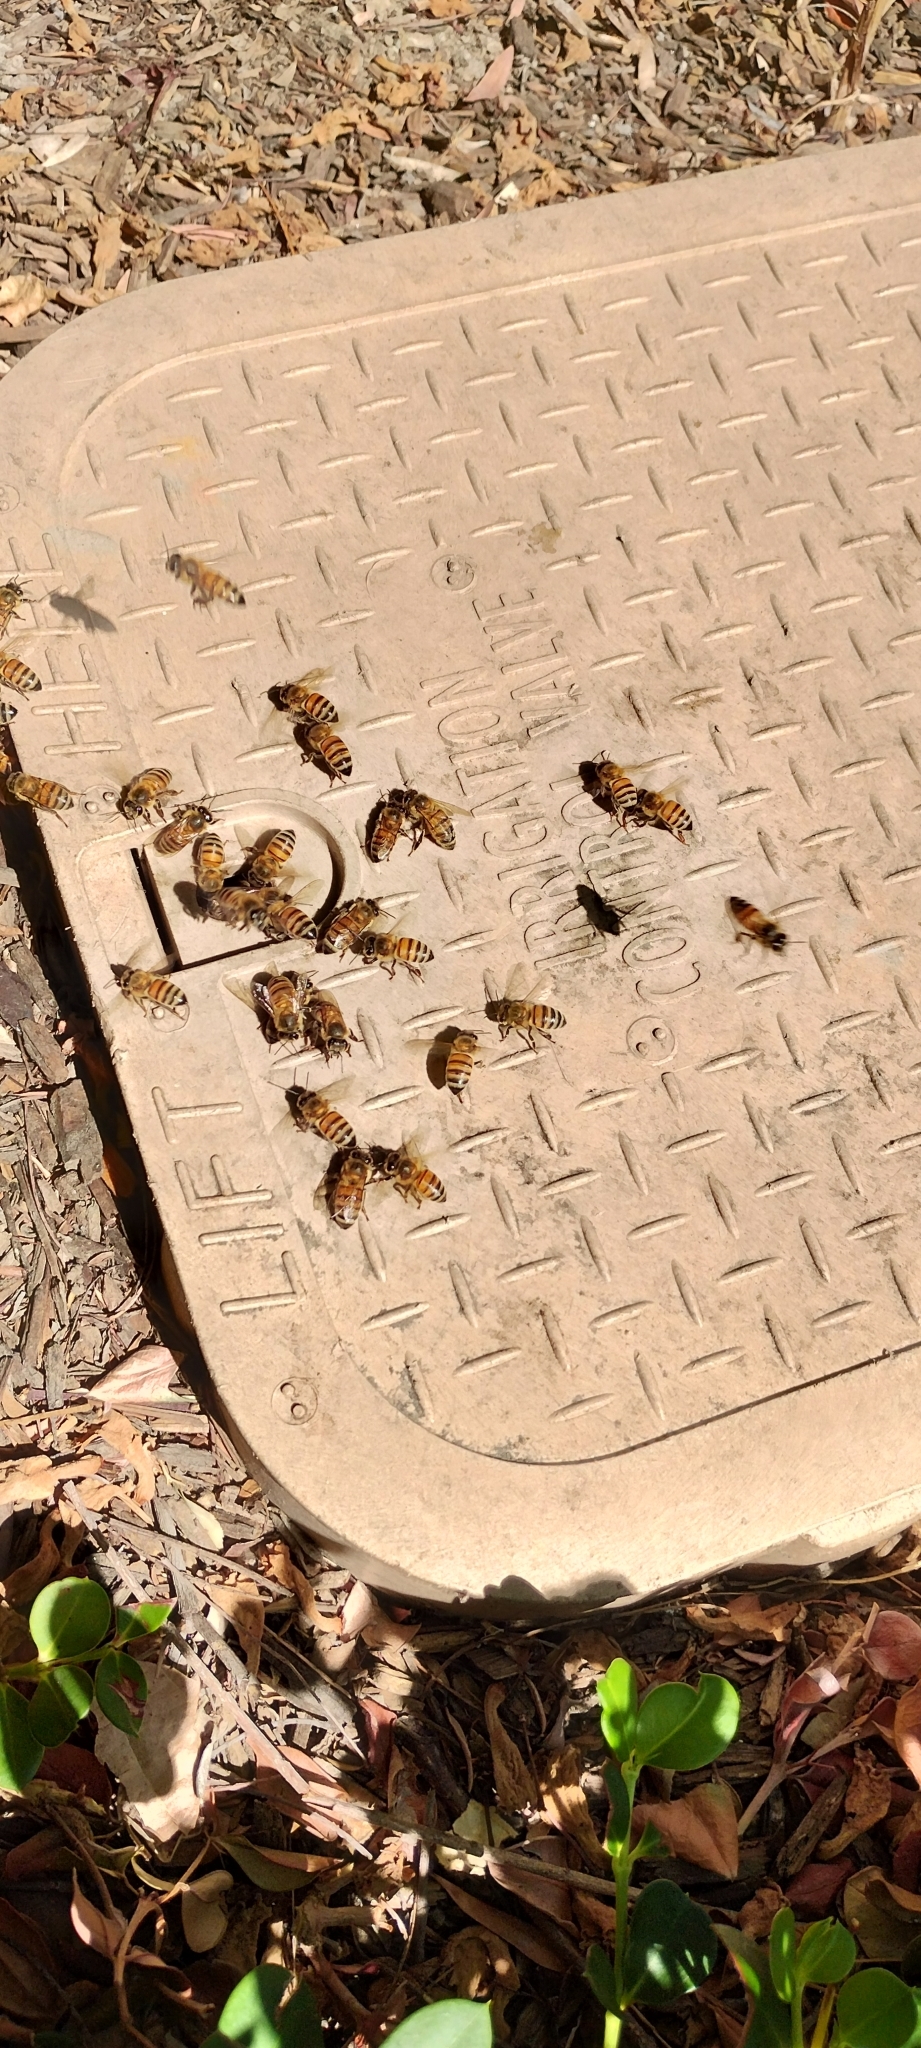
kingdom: Animalia
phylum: Arthropoda
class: Insecta
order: Hymenoptera
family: Apidae
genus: Apis
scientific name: Apis mellifera
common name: Honey bee
